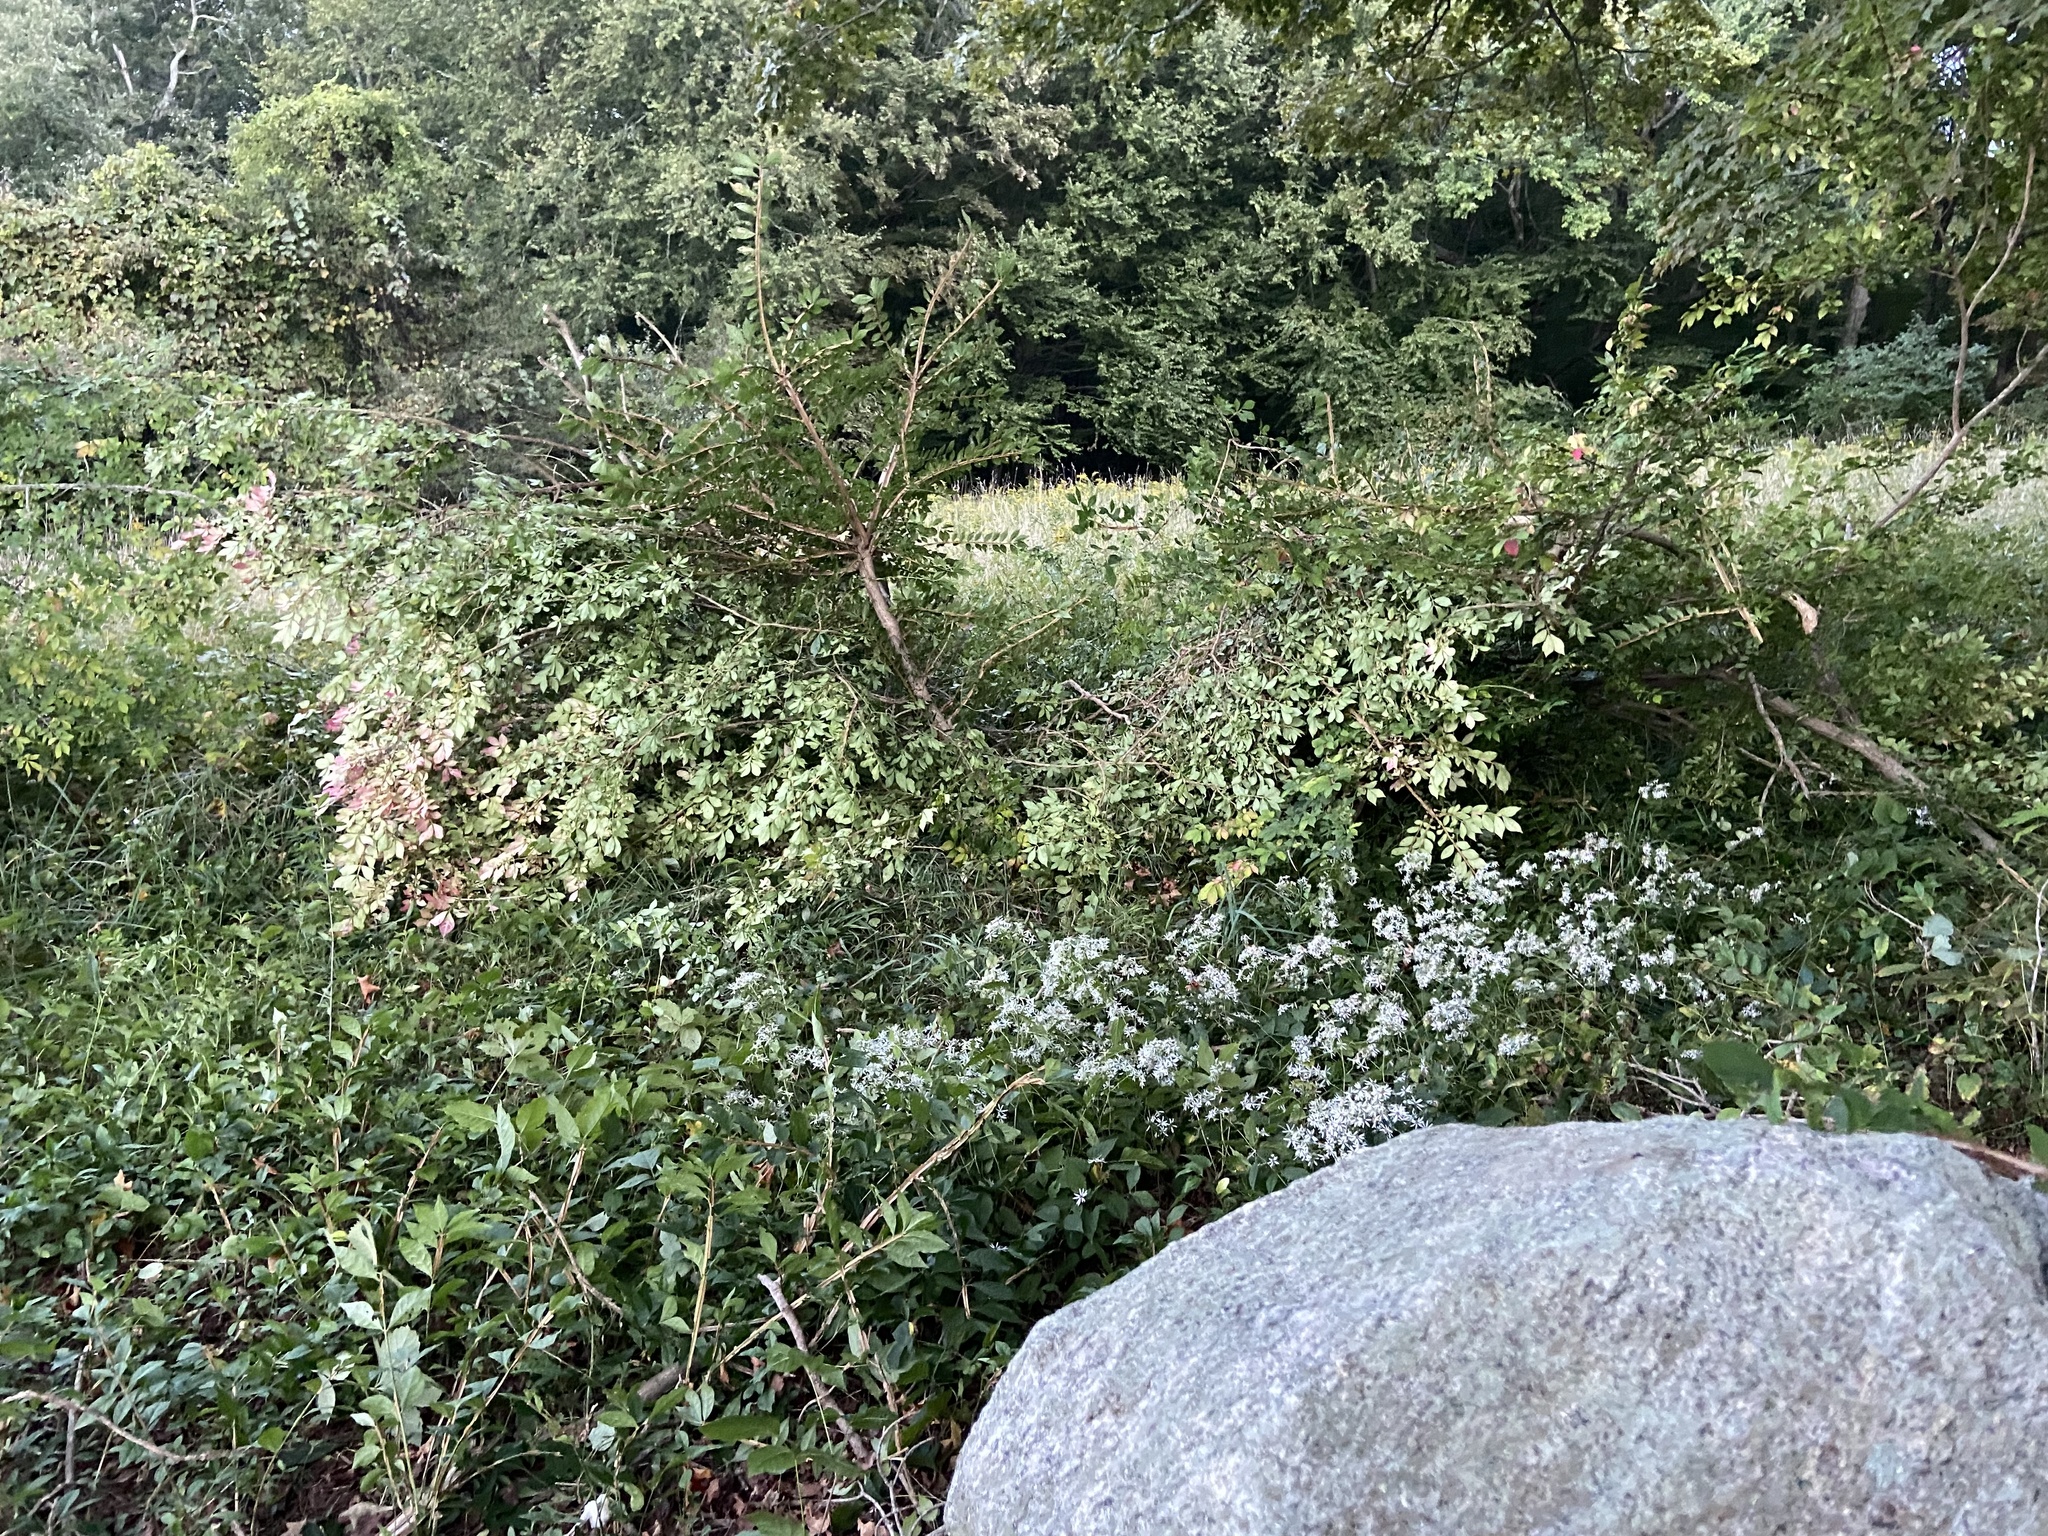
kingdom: Plantae
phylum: Tracheophyta
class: Magnoliopsida
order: Celastrales
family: Celastraceae
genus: Euonymus
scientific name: Euonymus alatus
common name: Winged euonymus
